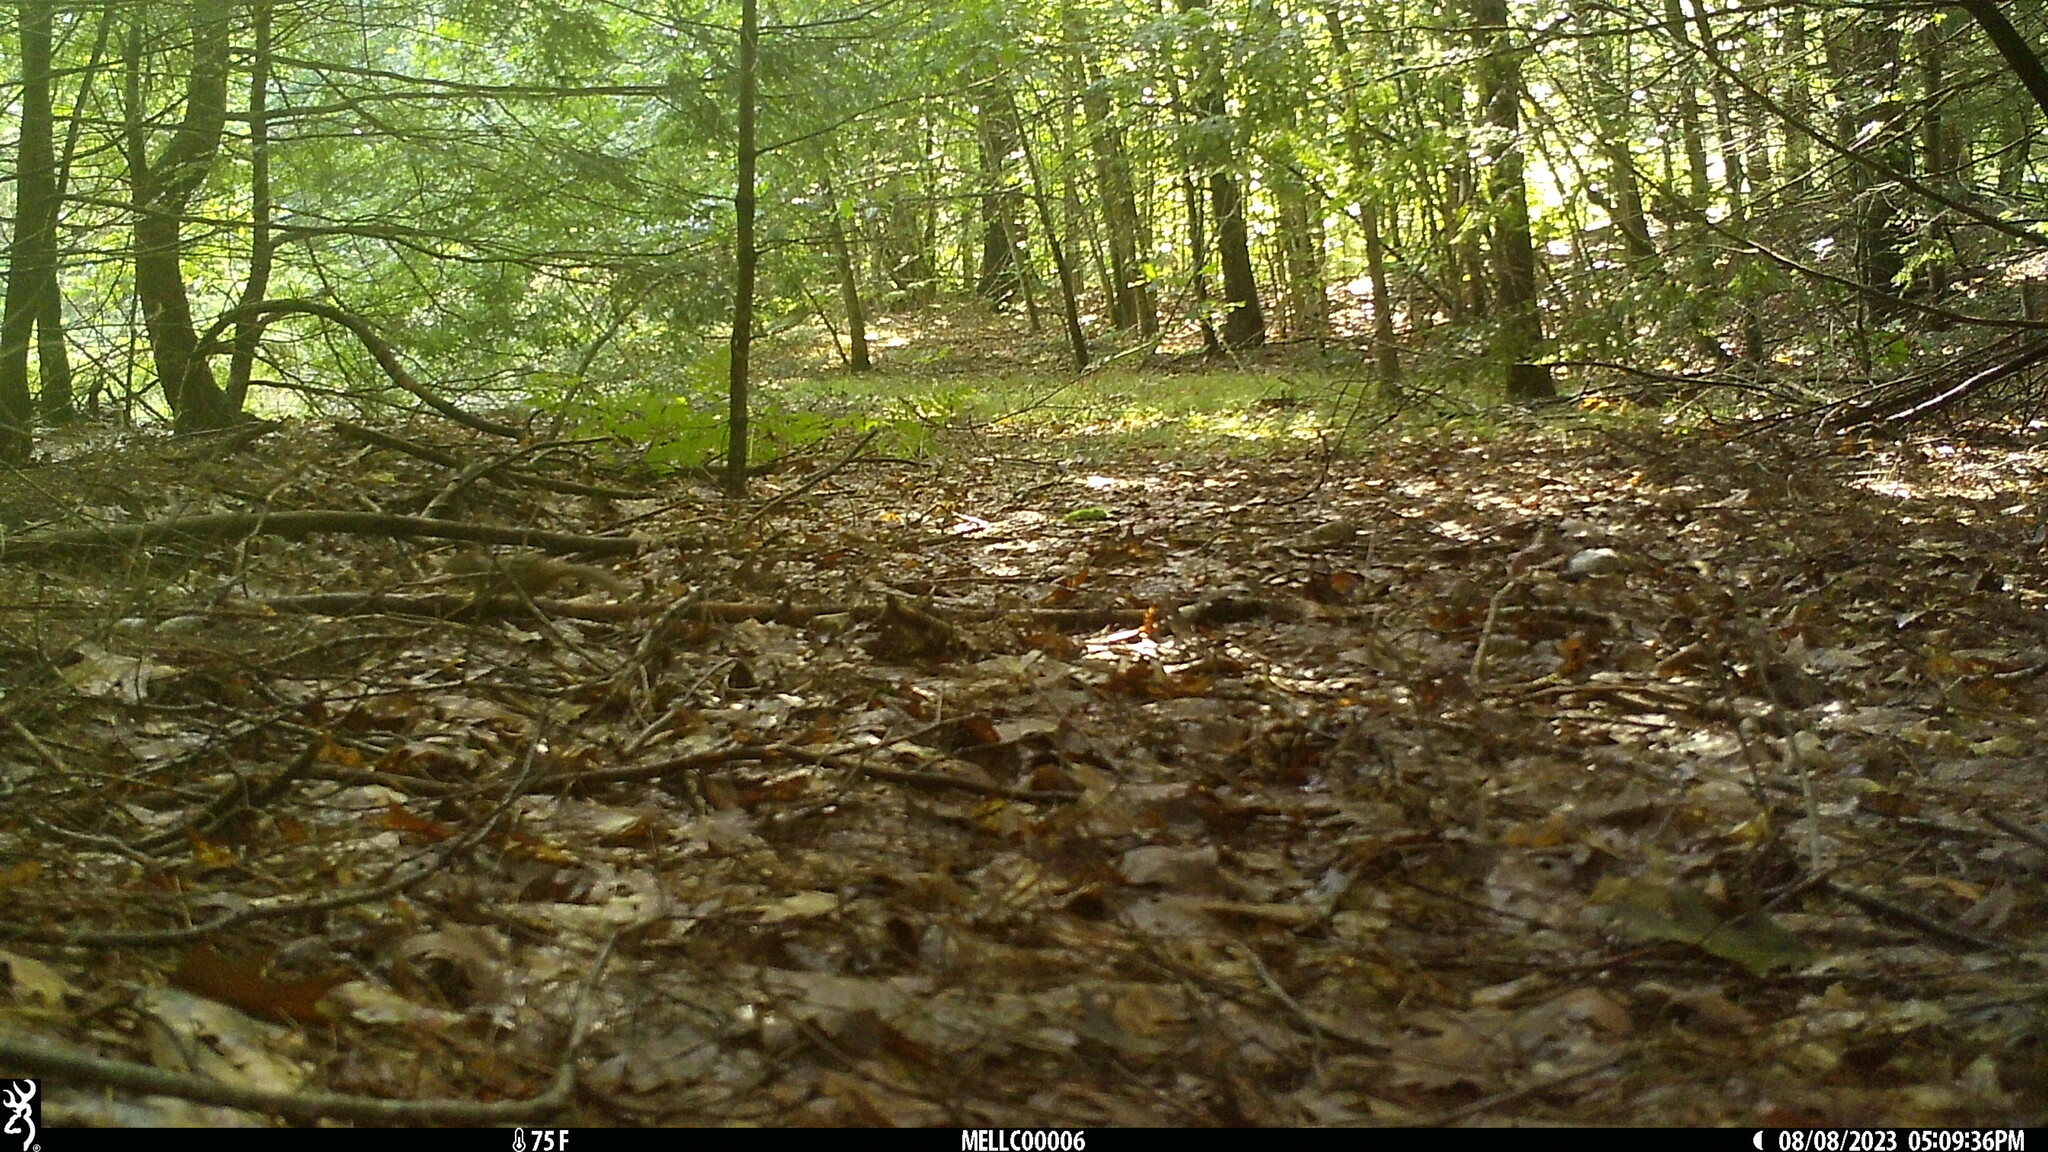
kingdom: Animalia
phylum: Chordata
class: Mammalia
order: Rodentia
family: Sciuridae
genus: Tamias
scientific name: Tamias striatus
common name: Eastern chipmunk
